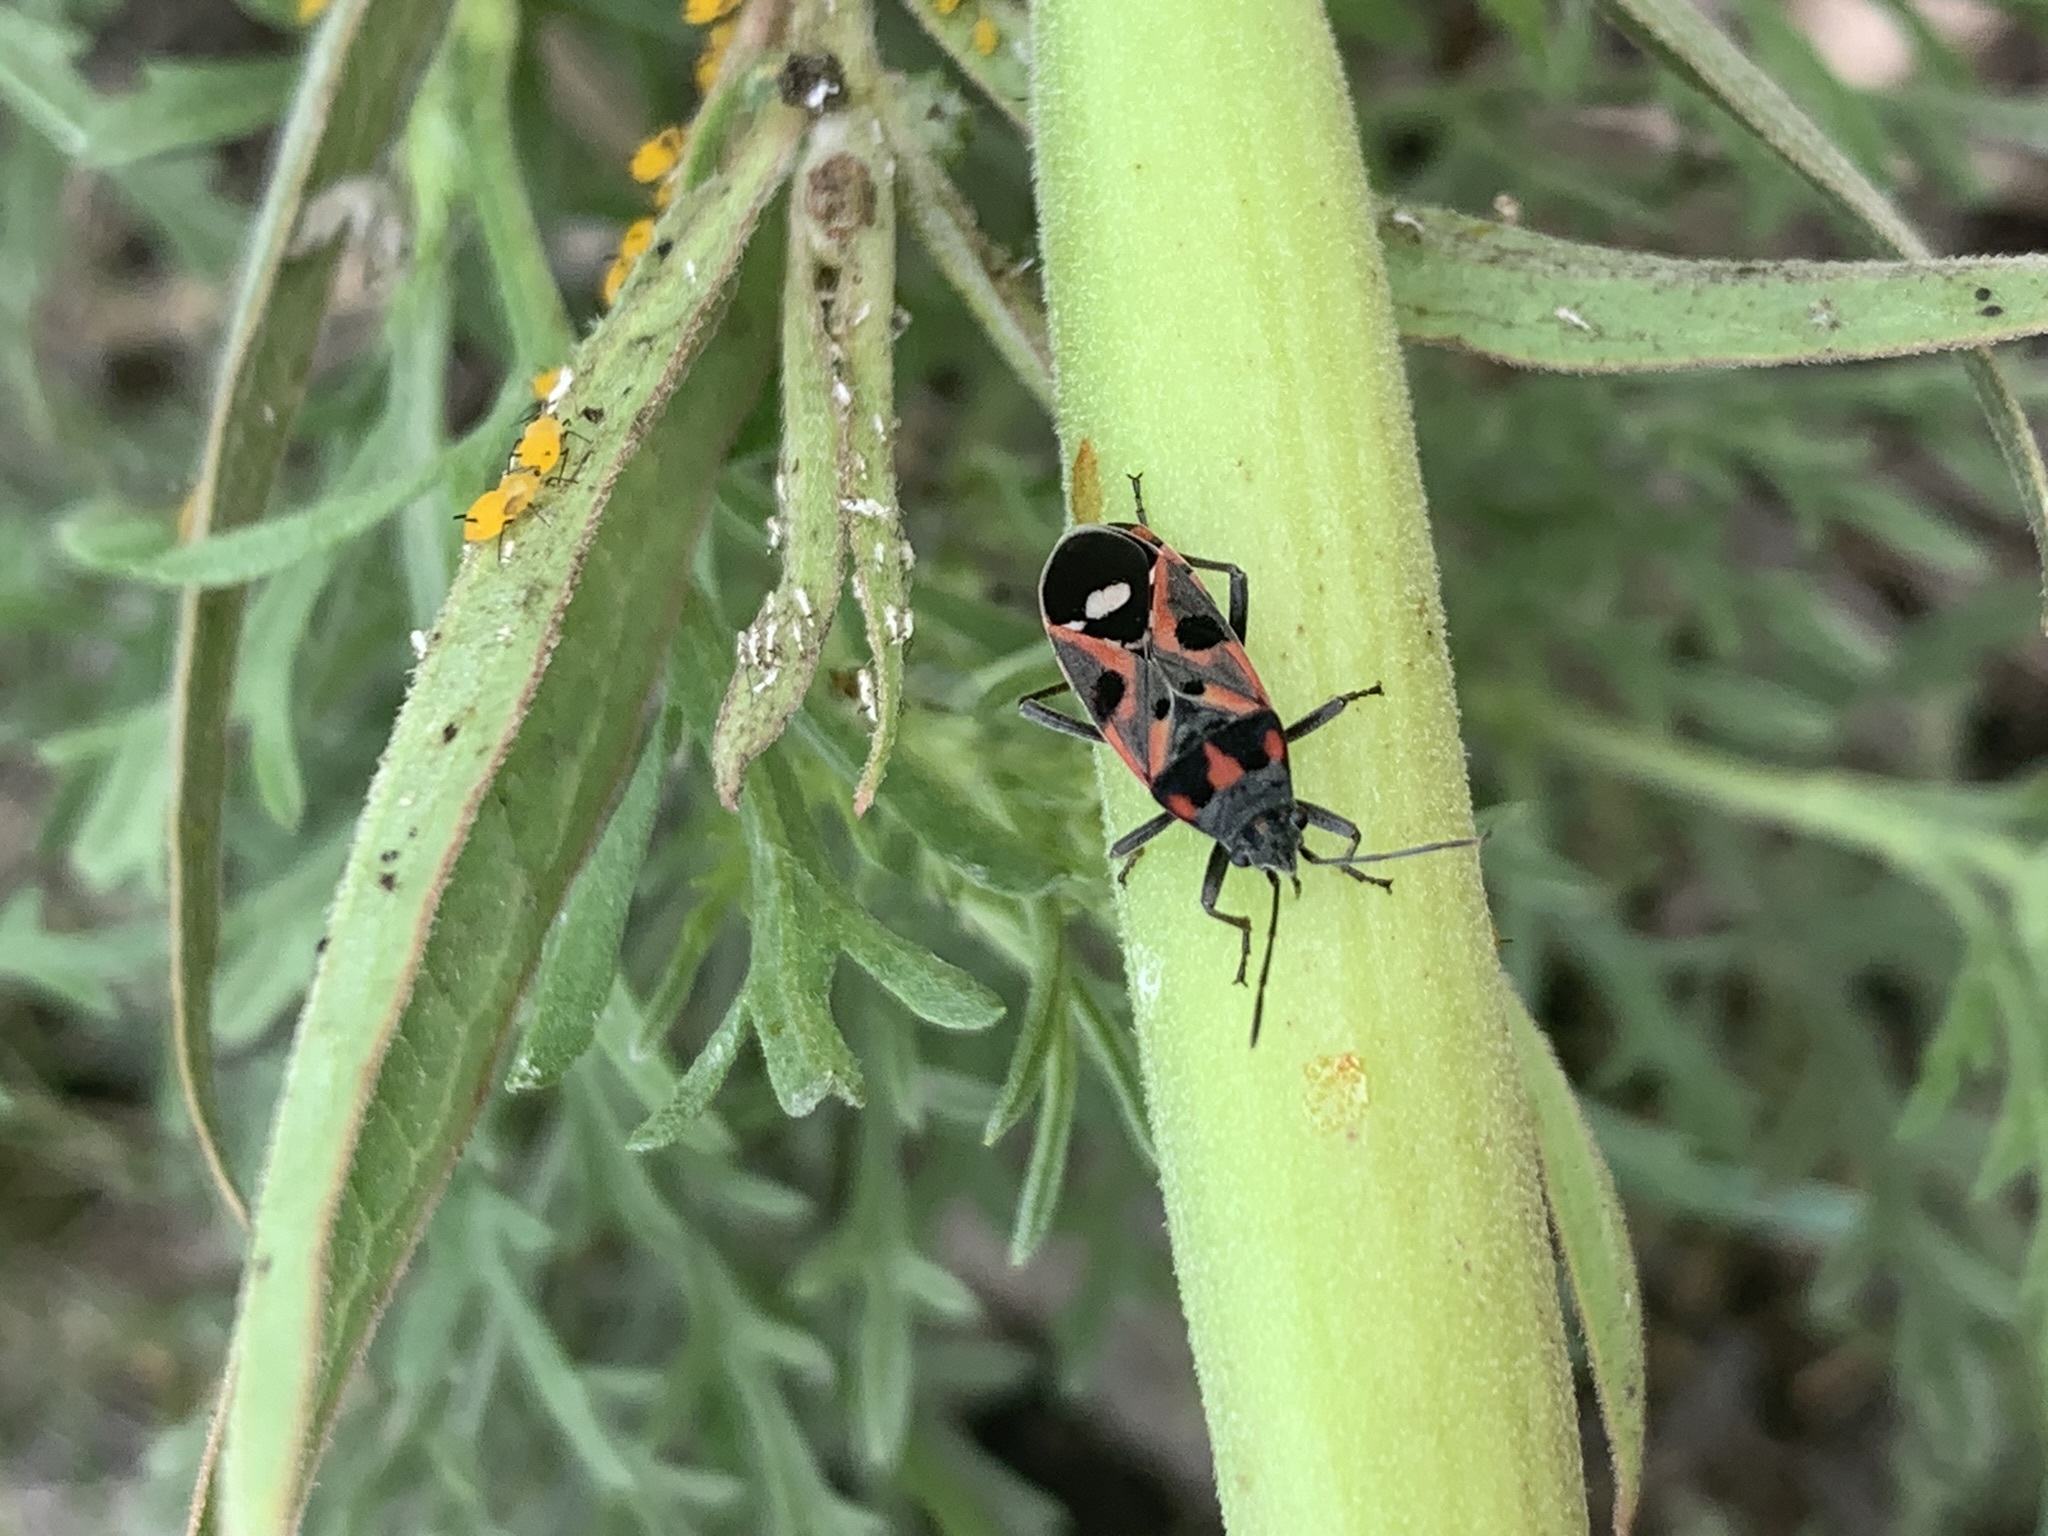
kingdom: Animalia
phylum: Arthropoda
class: Insecta
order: Hemiptera
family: Lygaeidae
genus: Lygaeus
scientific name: Lygaeus alboornatus
